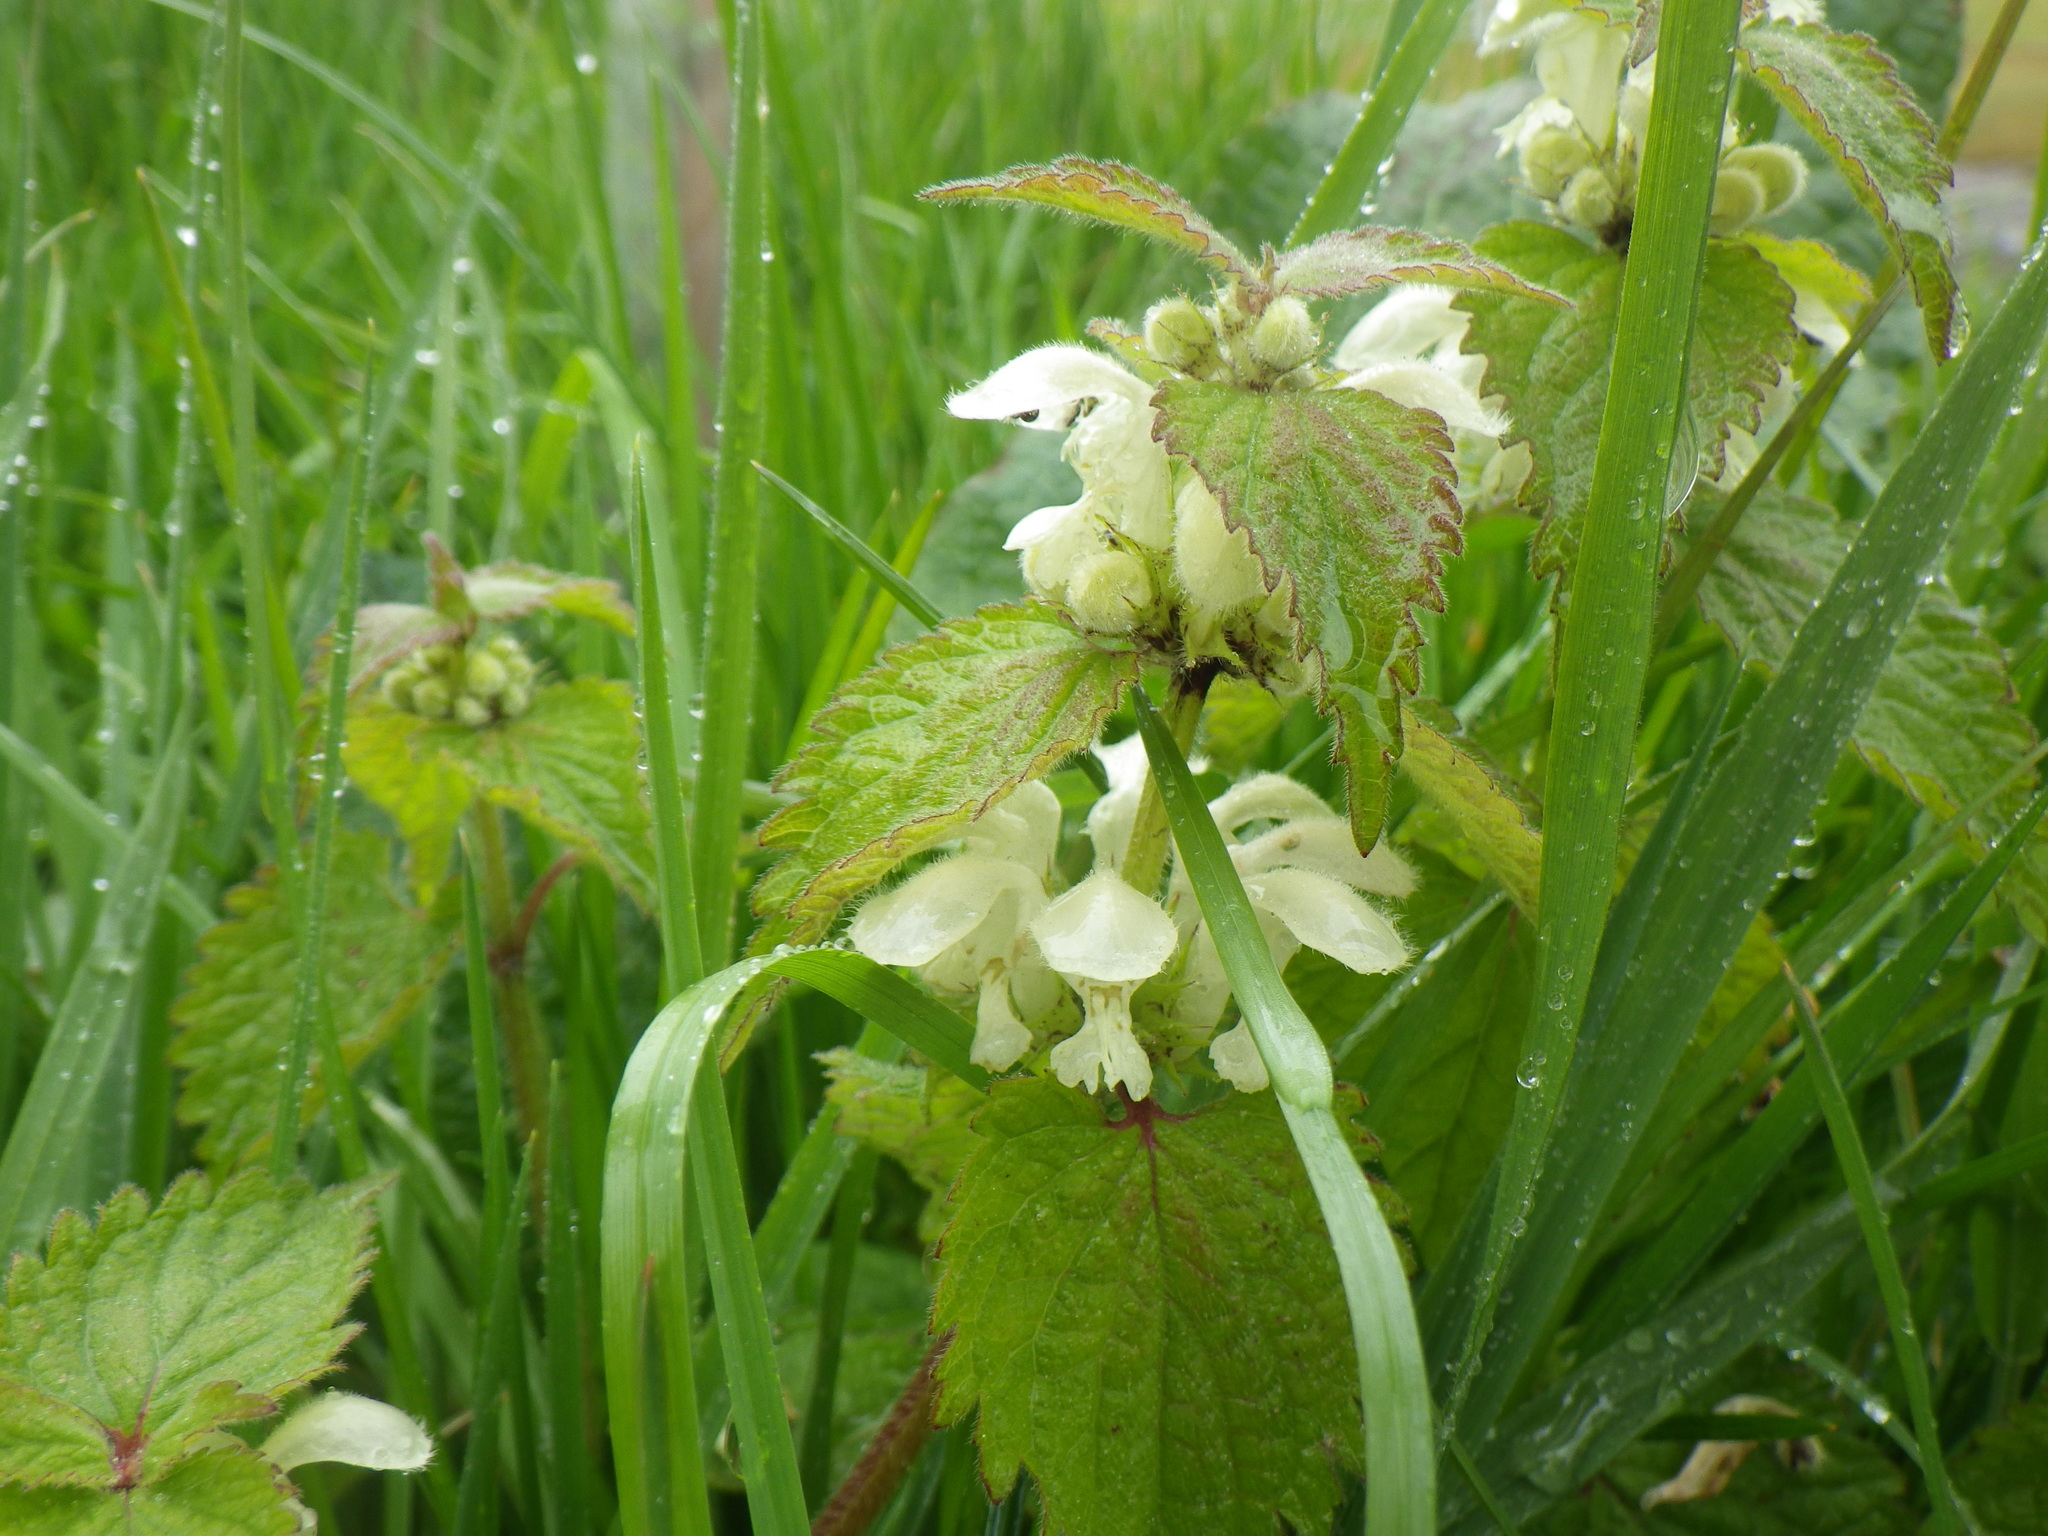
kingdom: Plantae
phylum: Tracheophyta
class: Magnoliopsida
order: Lamiales
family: Lamiaceae
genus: Lamium
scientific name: Lamium album
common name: White dead-nettle
